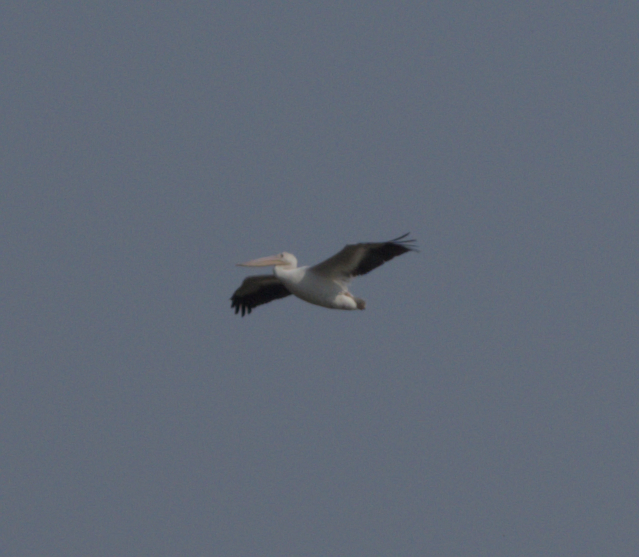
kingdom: Animalia
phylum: Chordata
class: Aves
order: Pelecaniformes
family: Pelecanidae
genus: Pelecanus
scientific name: Pelecanus erythrorhynchos
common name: American white pelican
